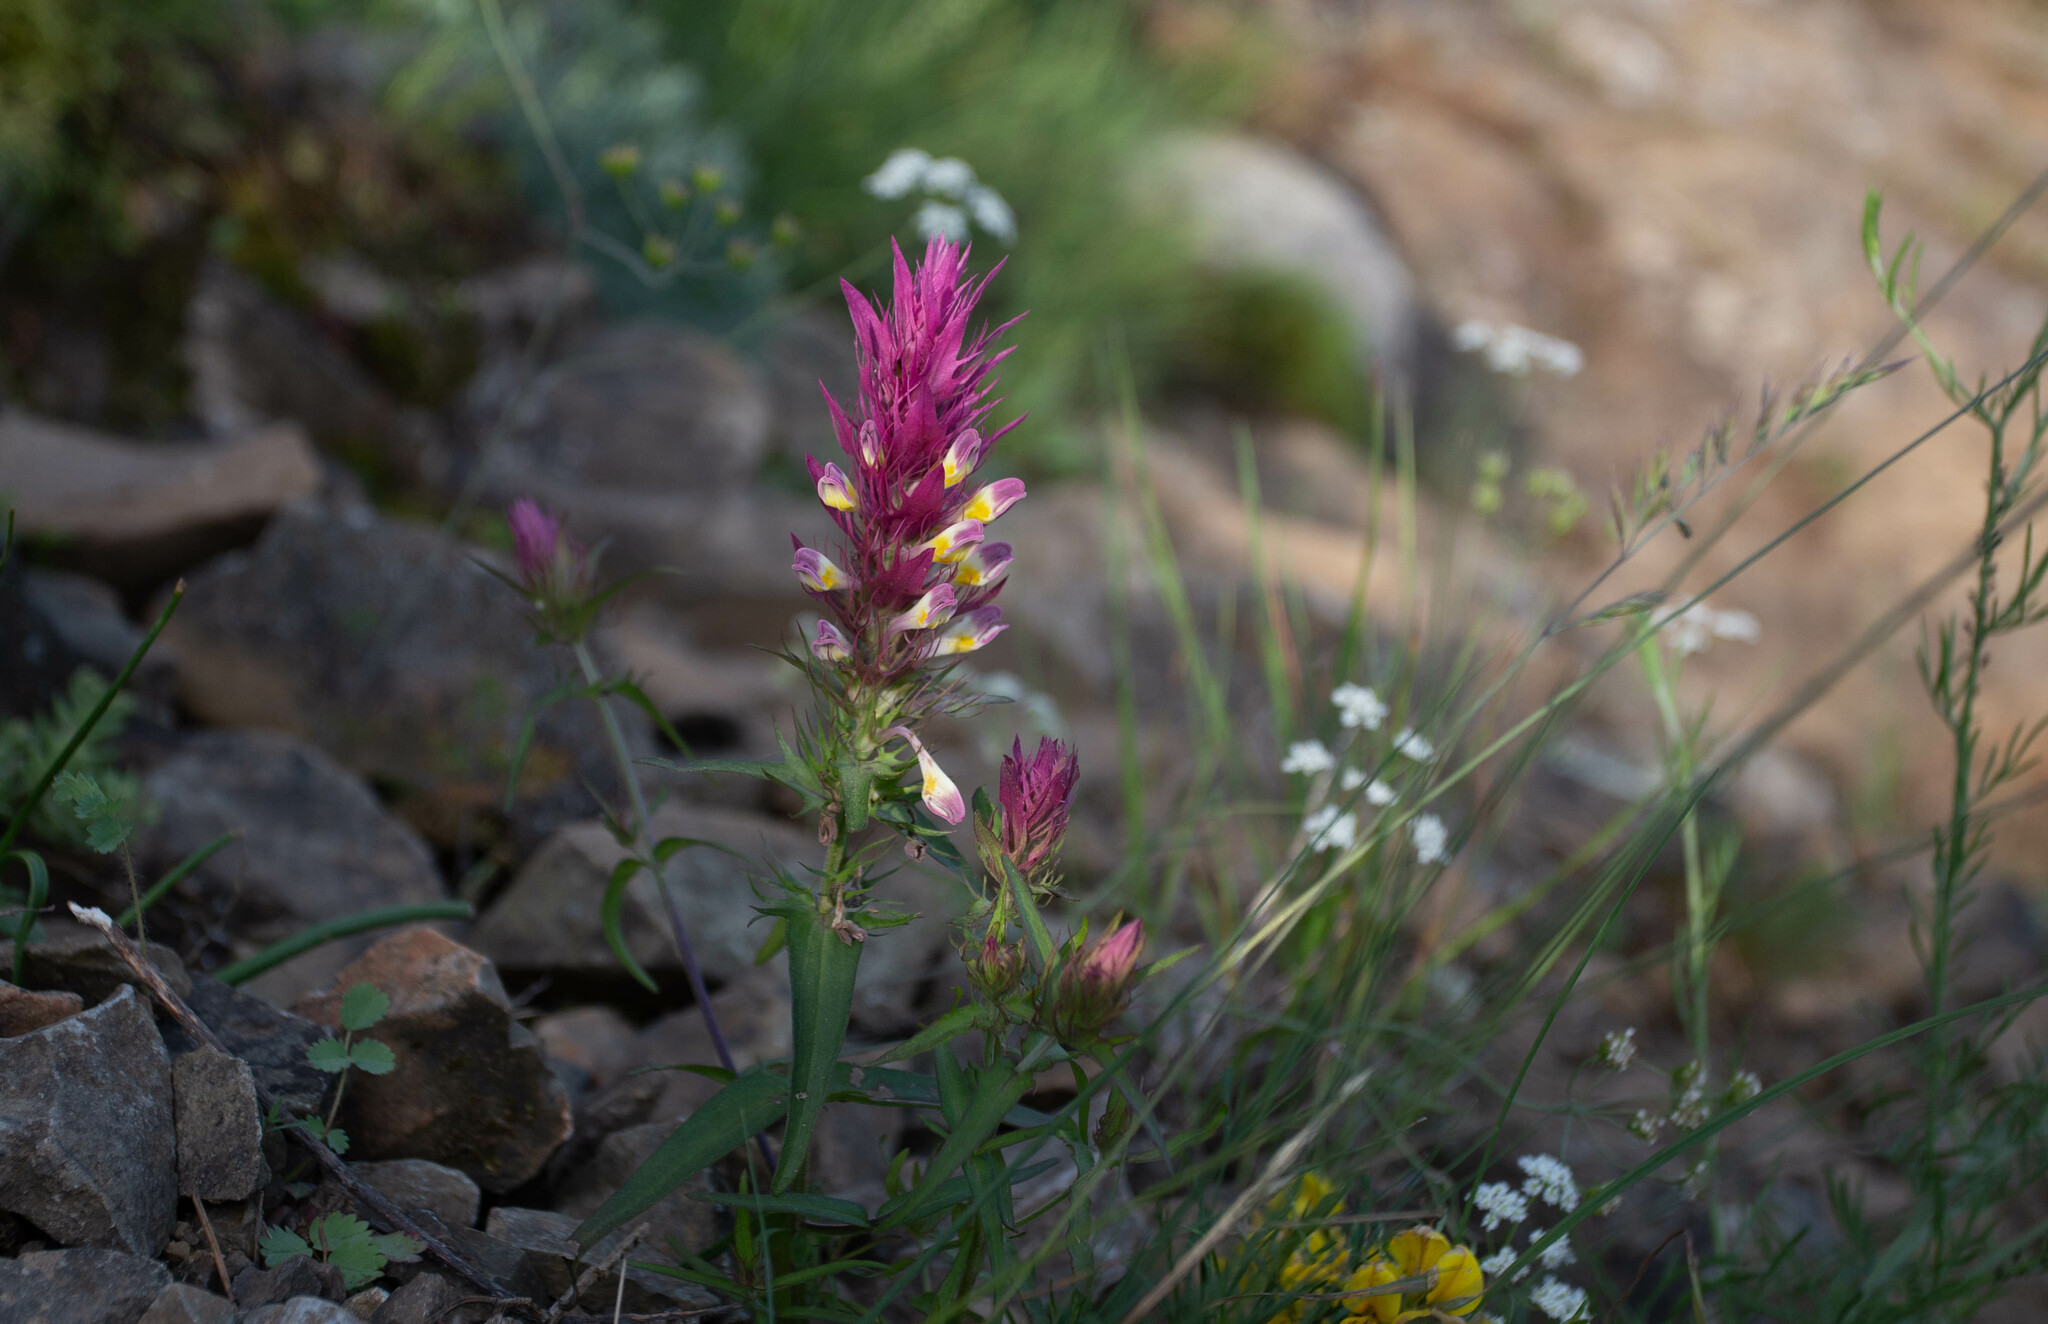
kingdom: Plantae
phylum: Tracheophyta
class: Magnoliopsida
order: Lamiales
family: Orobanchaceae
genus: Melampyrum
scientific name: Melampyrum arvense
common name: Field cow-wheat
